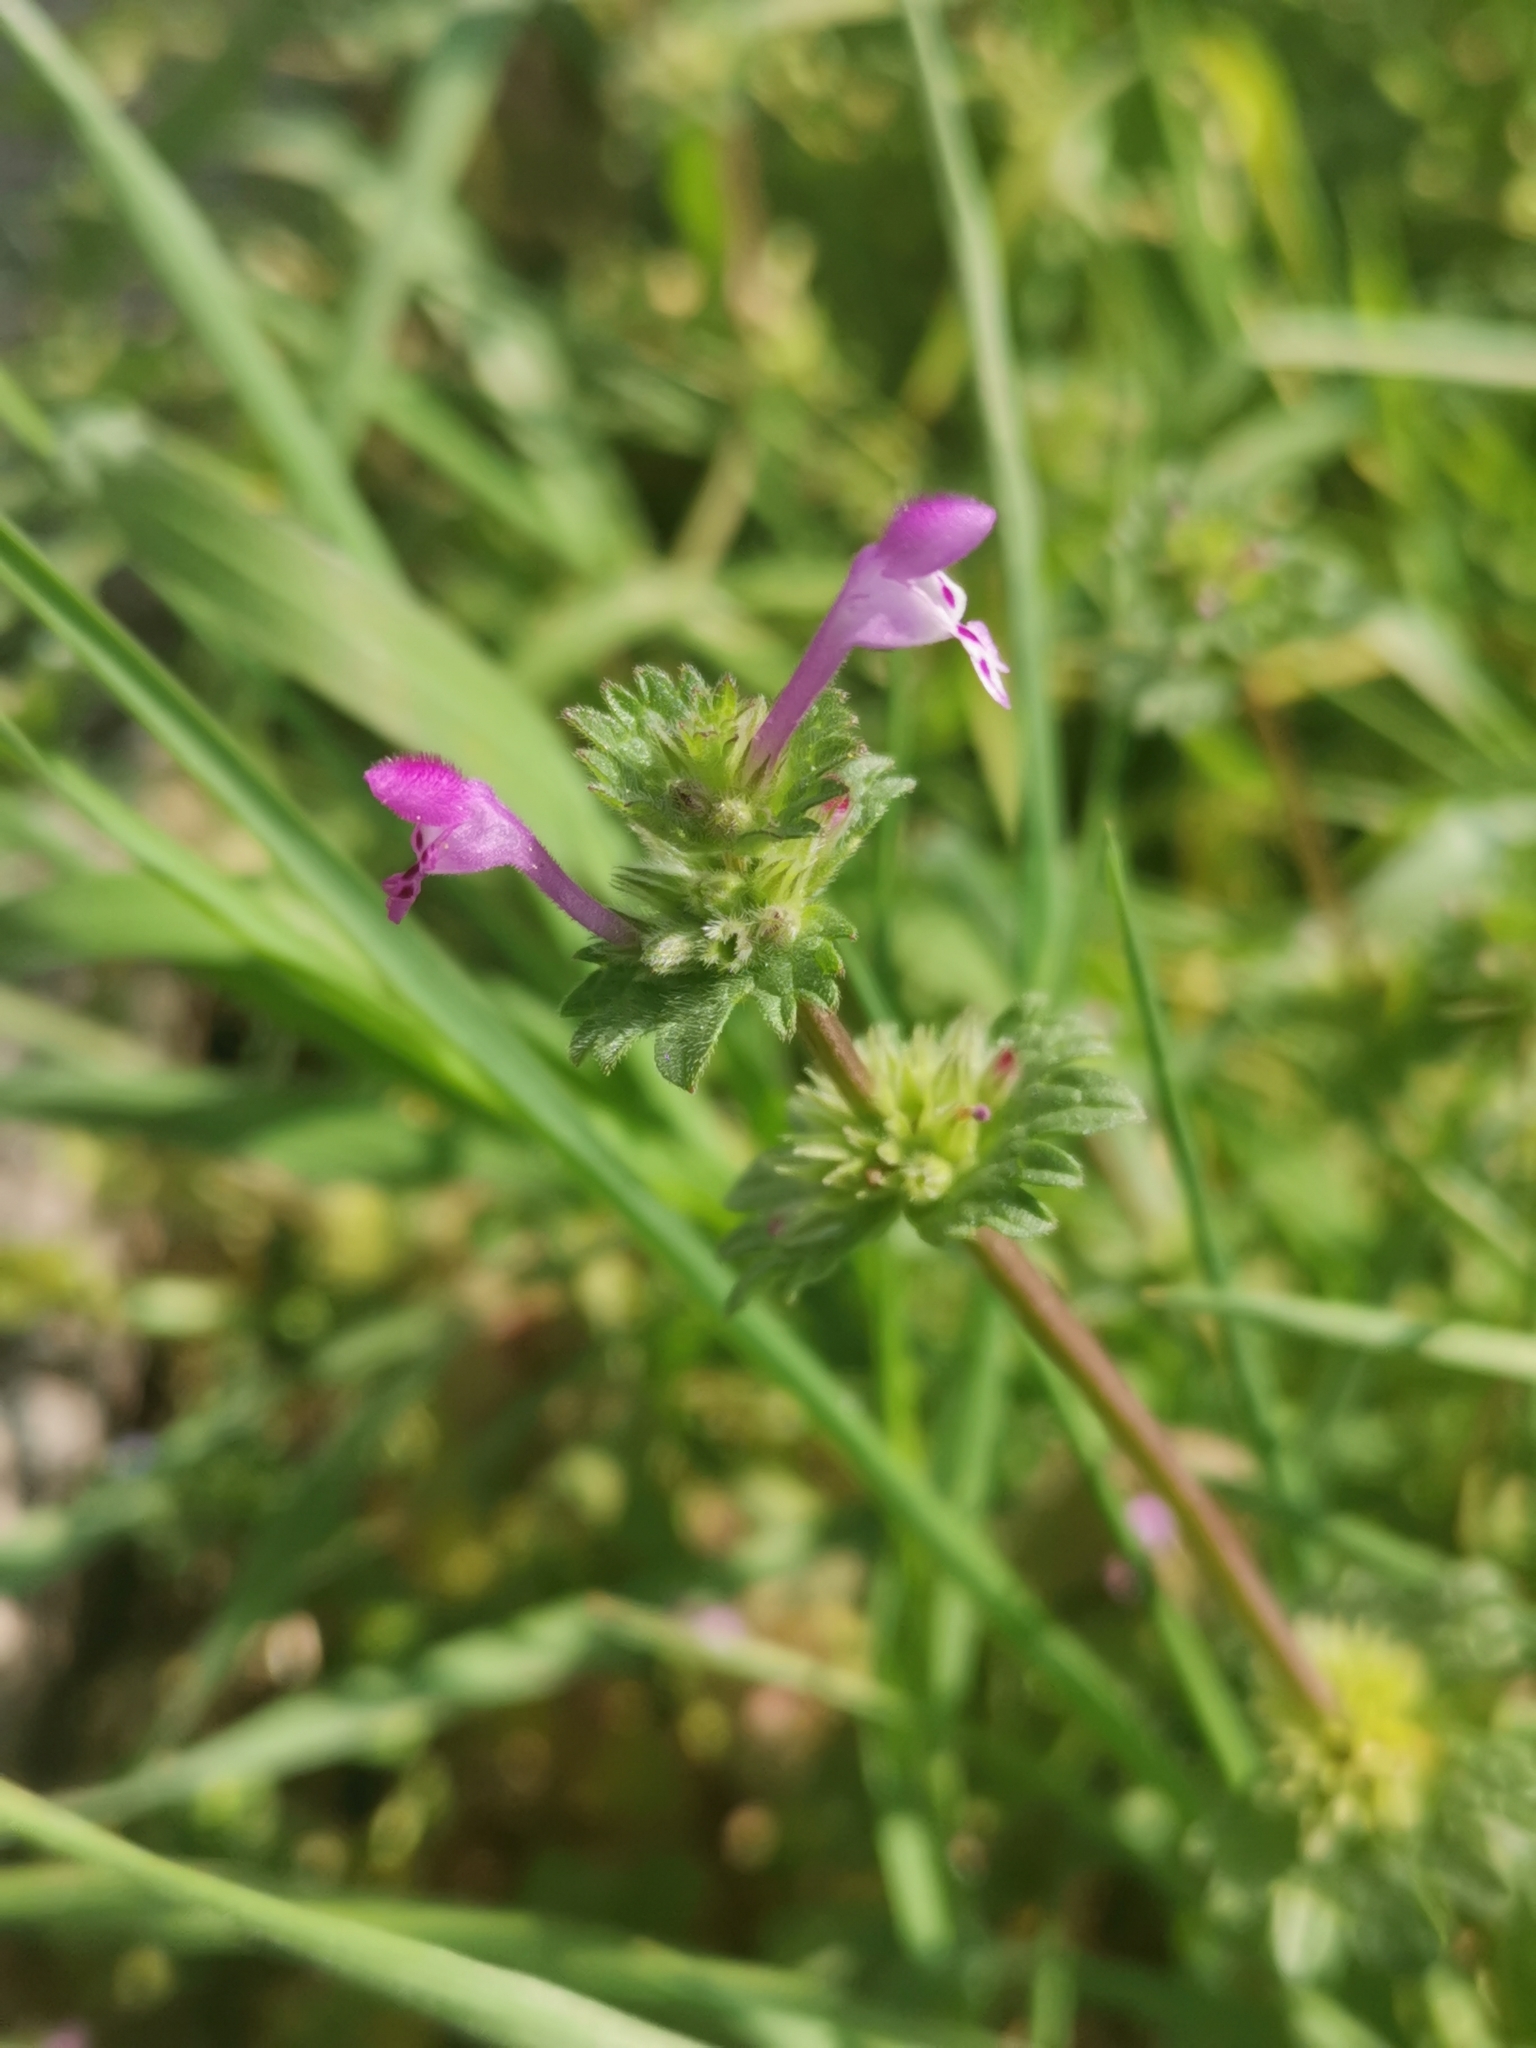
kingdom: Plantae
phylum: Tracheophyta
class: Magnoliopsida
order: Lamiales
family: Lamiaceae
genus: Lamium
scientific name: Lamium amplexicaule
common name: Henbit dead-nettle
